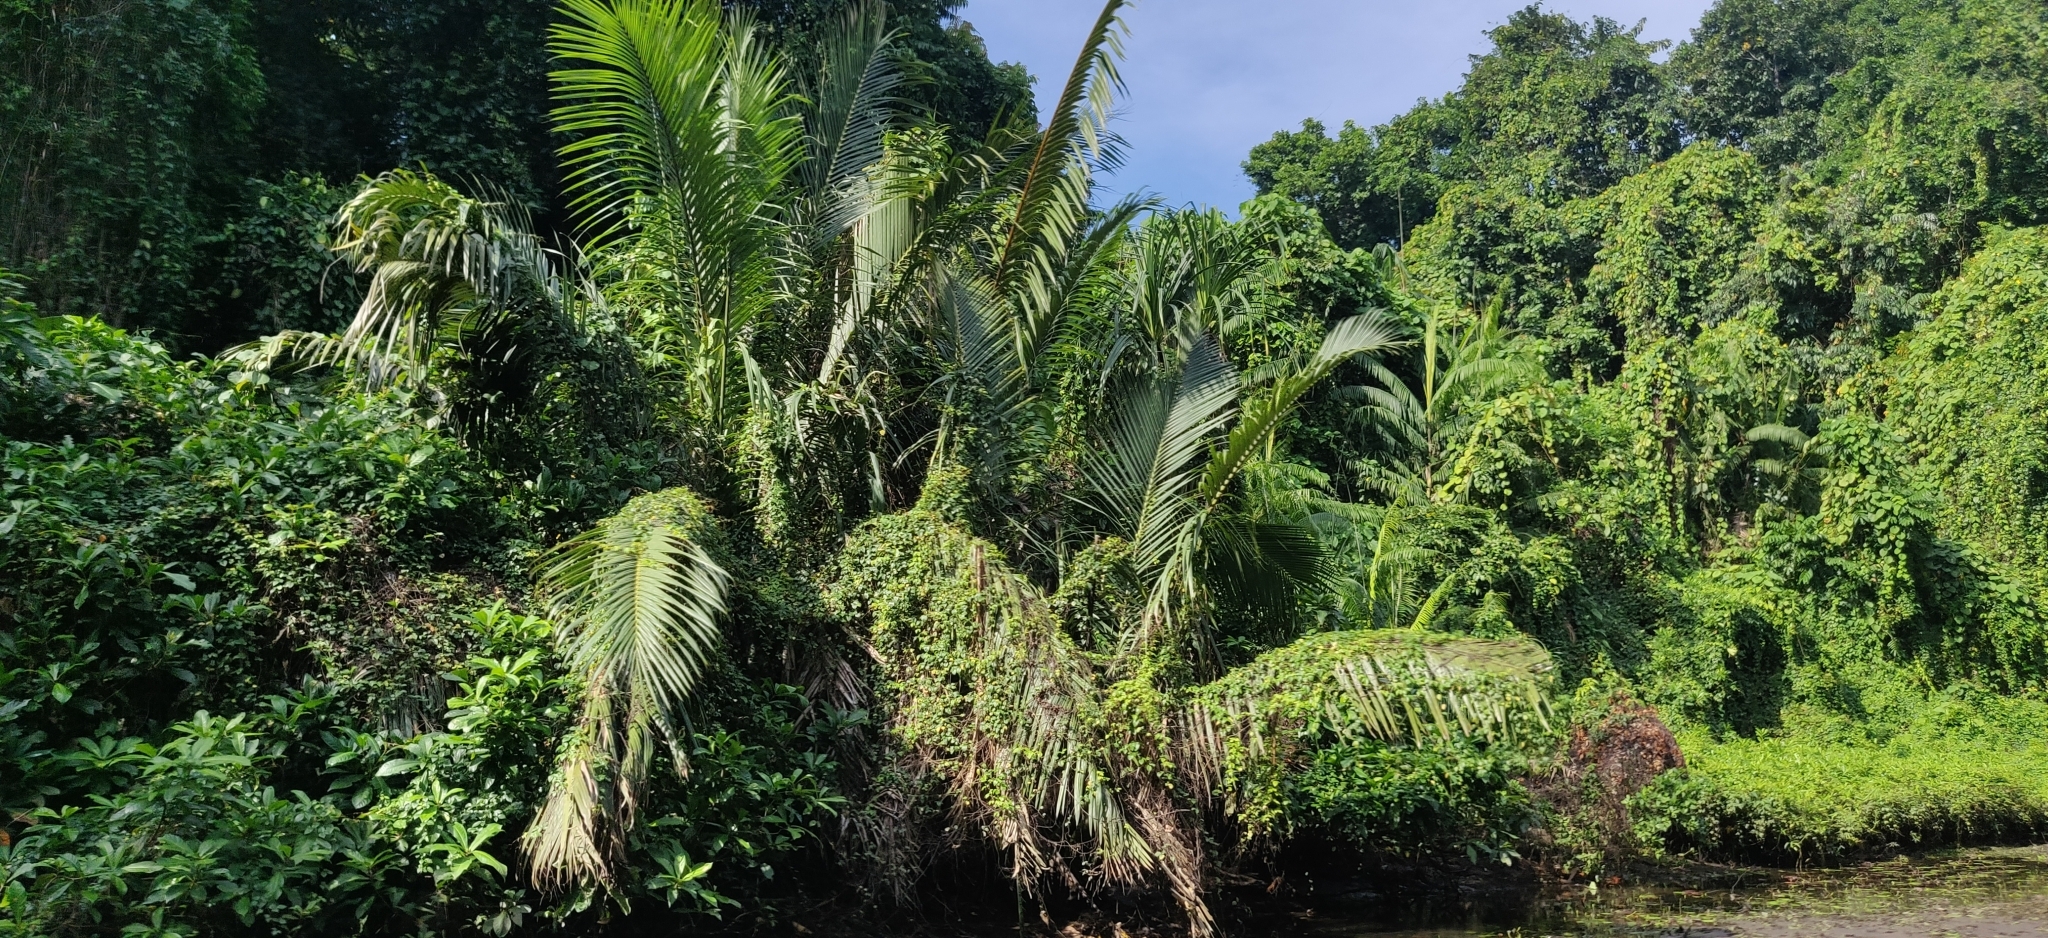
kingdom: Plantae
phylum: Tracheophyta
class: Liliopsida
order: Arecales
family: Arecaceae
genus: Nypa
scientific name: Nypa fruticans
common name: Mangrove palm
